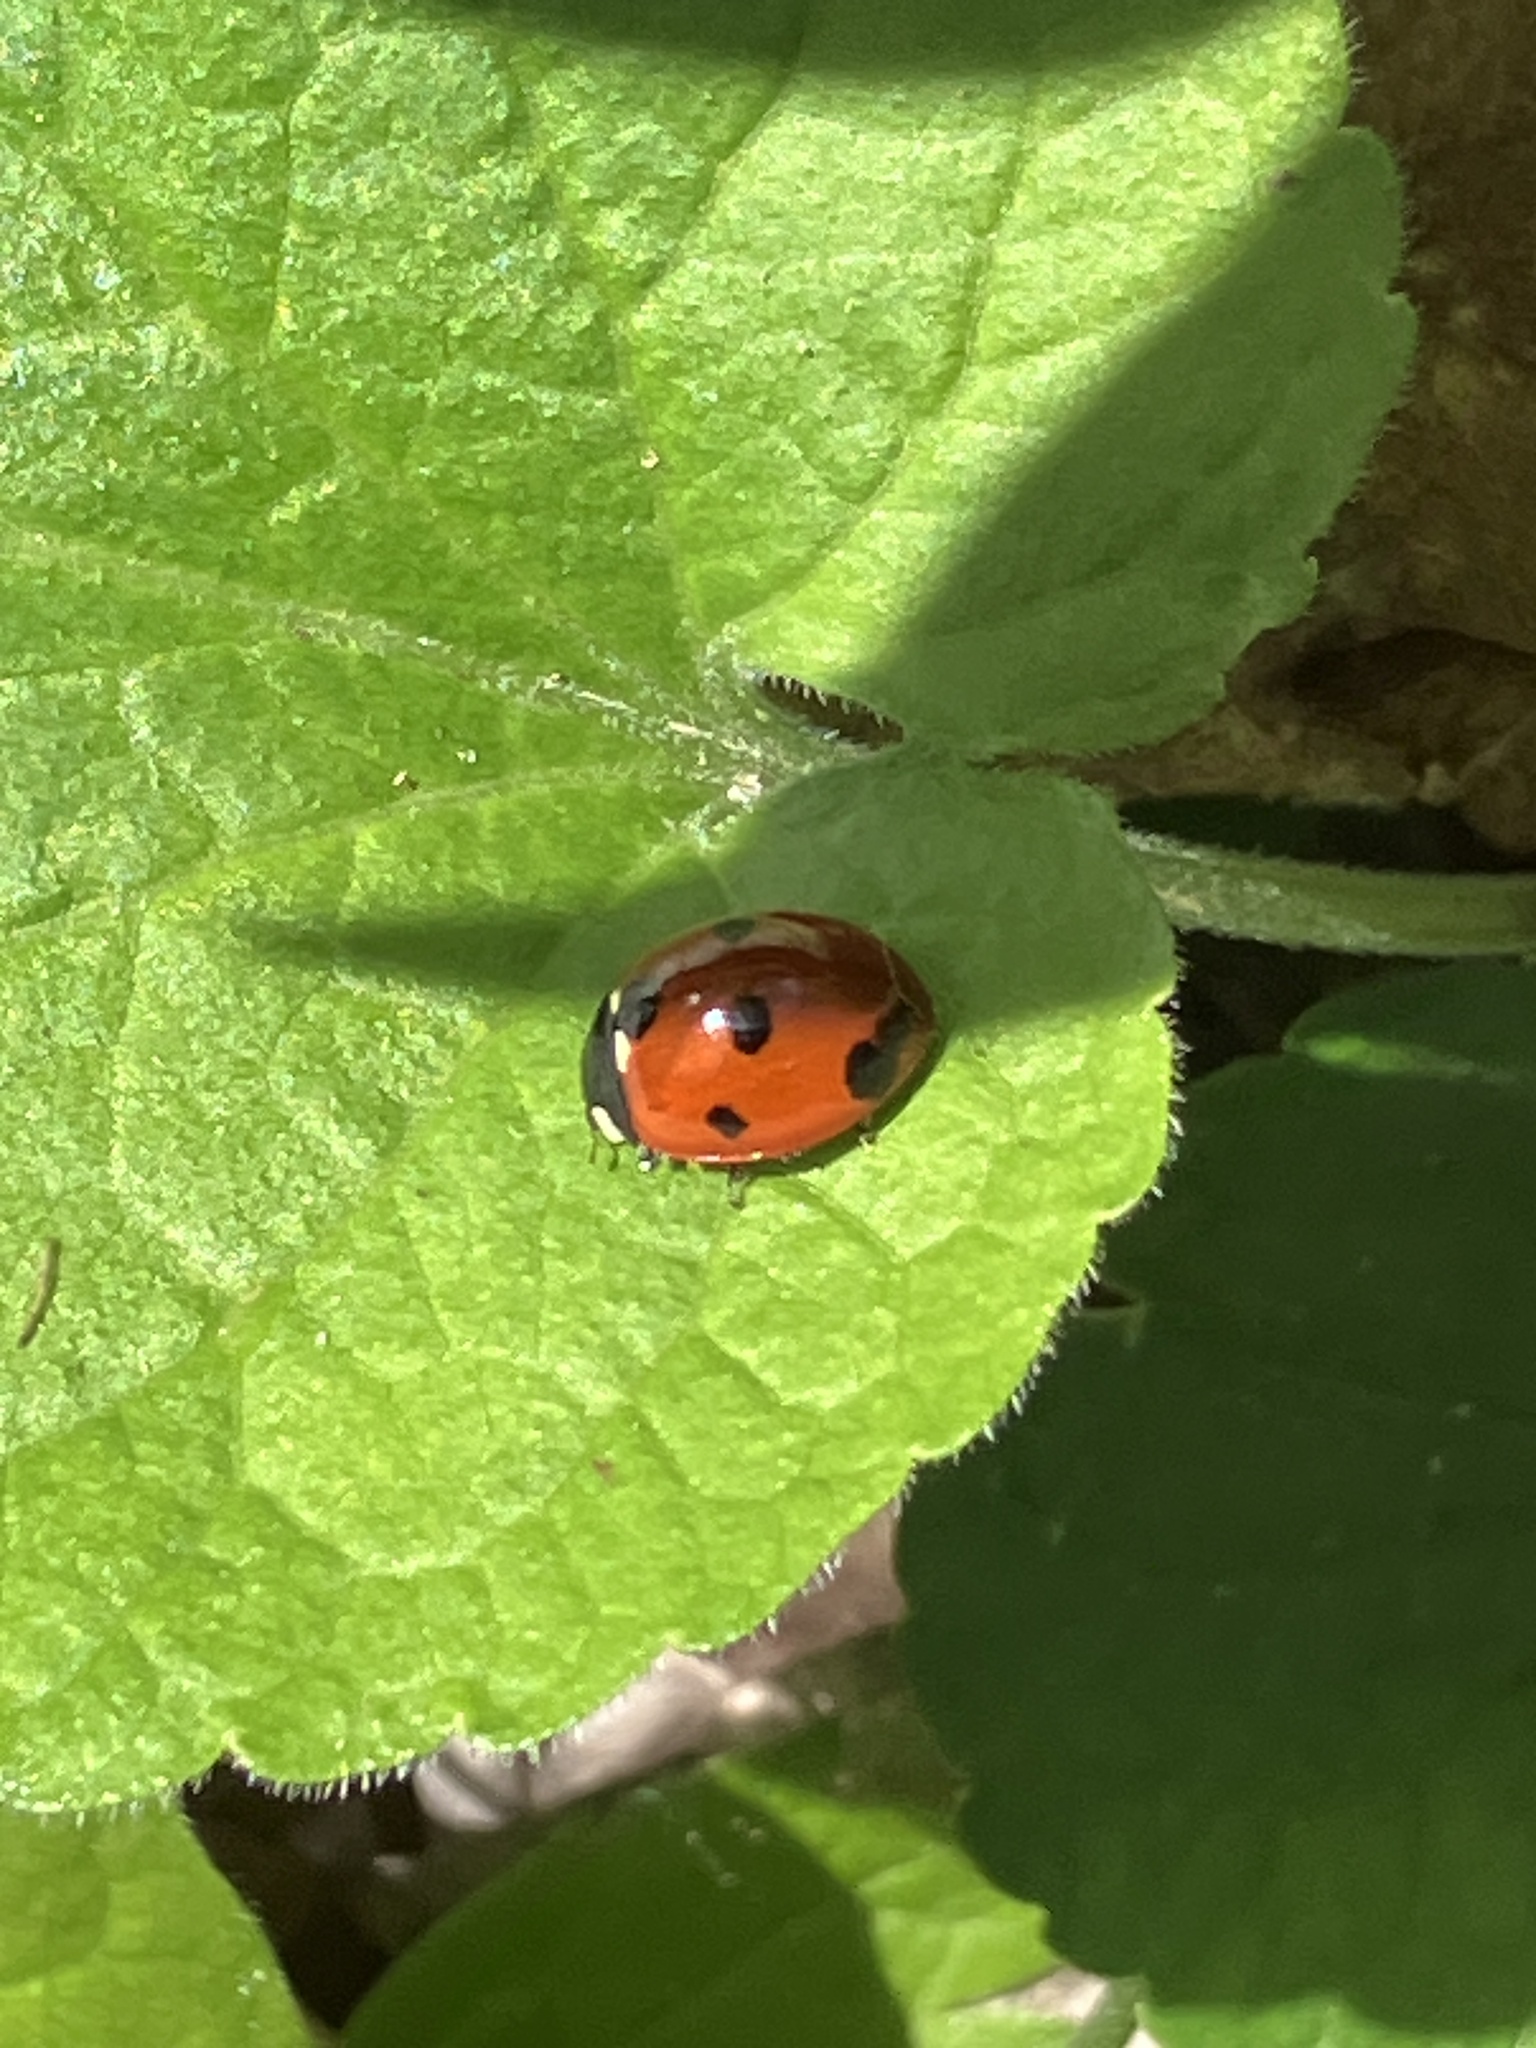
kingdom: Animalia
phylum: Arthropoda
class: Insecta
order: Coleoptera
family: Coccinellidae
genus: Coccinella
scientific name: Coccinella septempunctata
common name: Sevenspotted lady beetle
